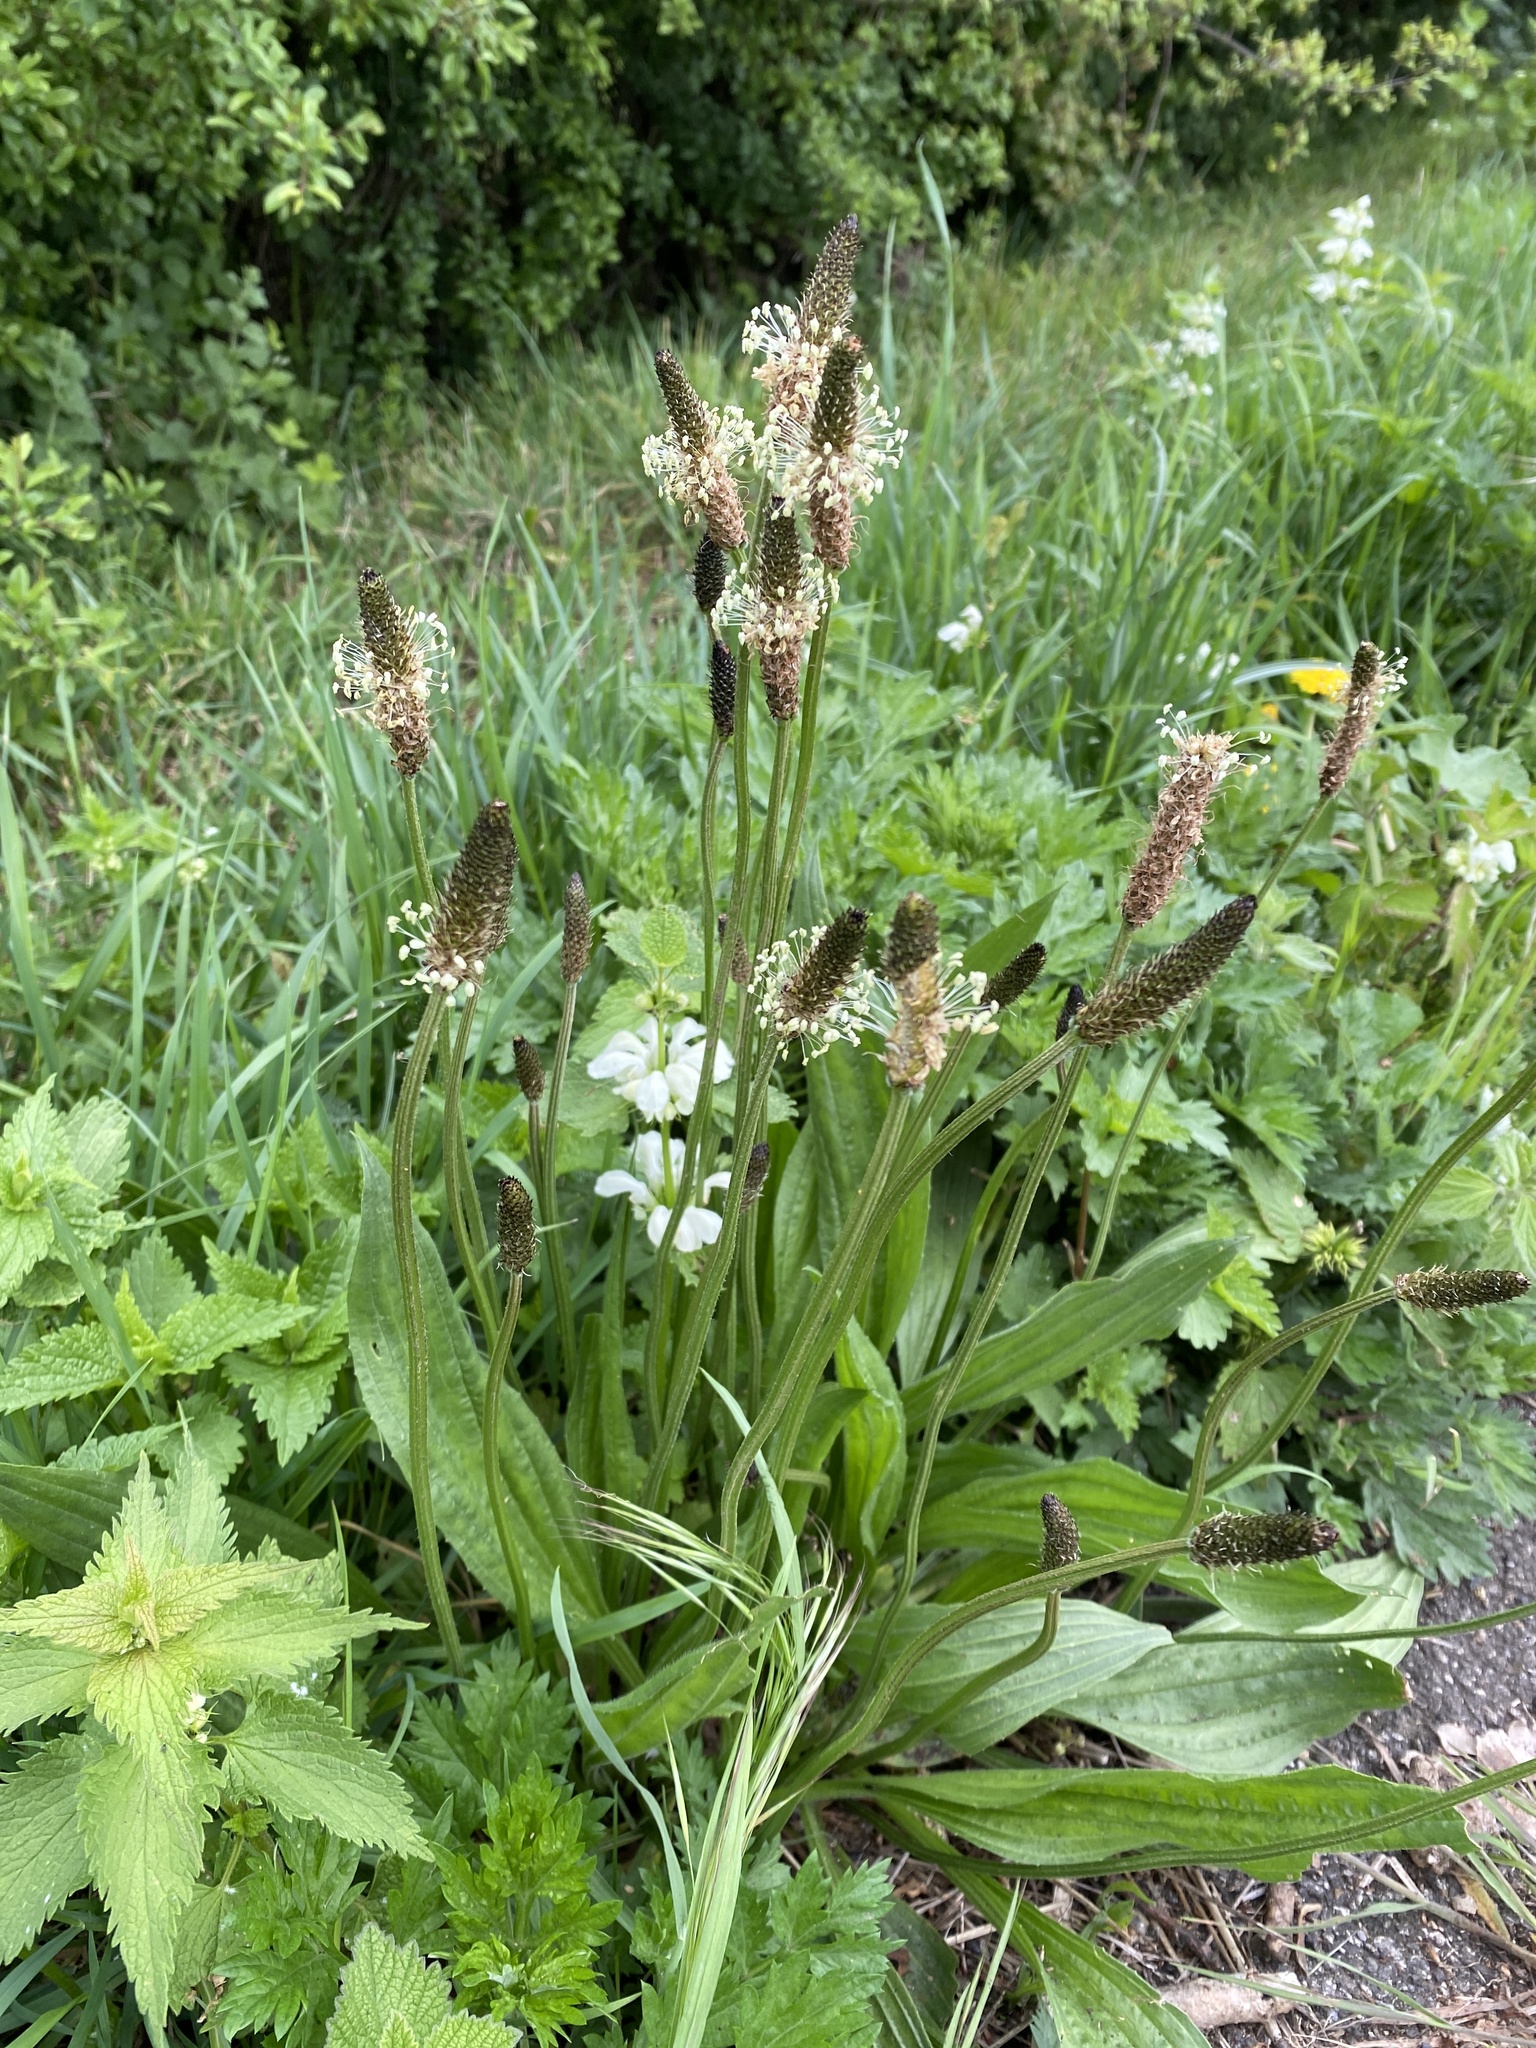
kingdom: Plantae
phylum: Tracheophyta
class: Magnoliopsida
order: Lamiales
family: Plantaginaceae
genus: Plantago
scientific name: Plantago lanceolata
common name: Ribwort plantain
